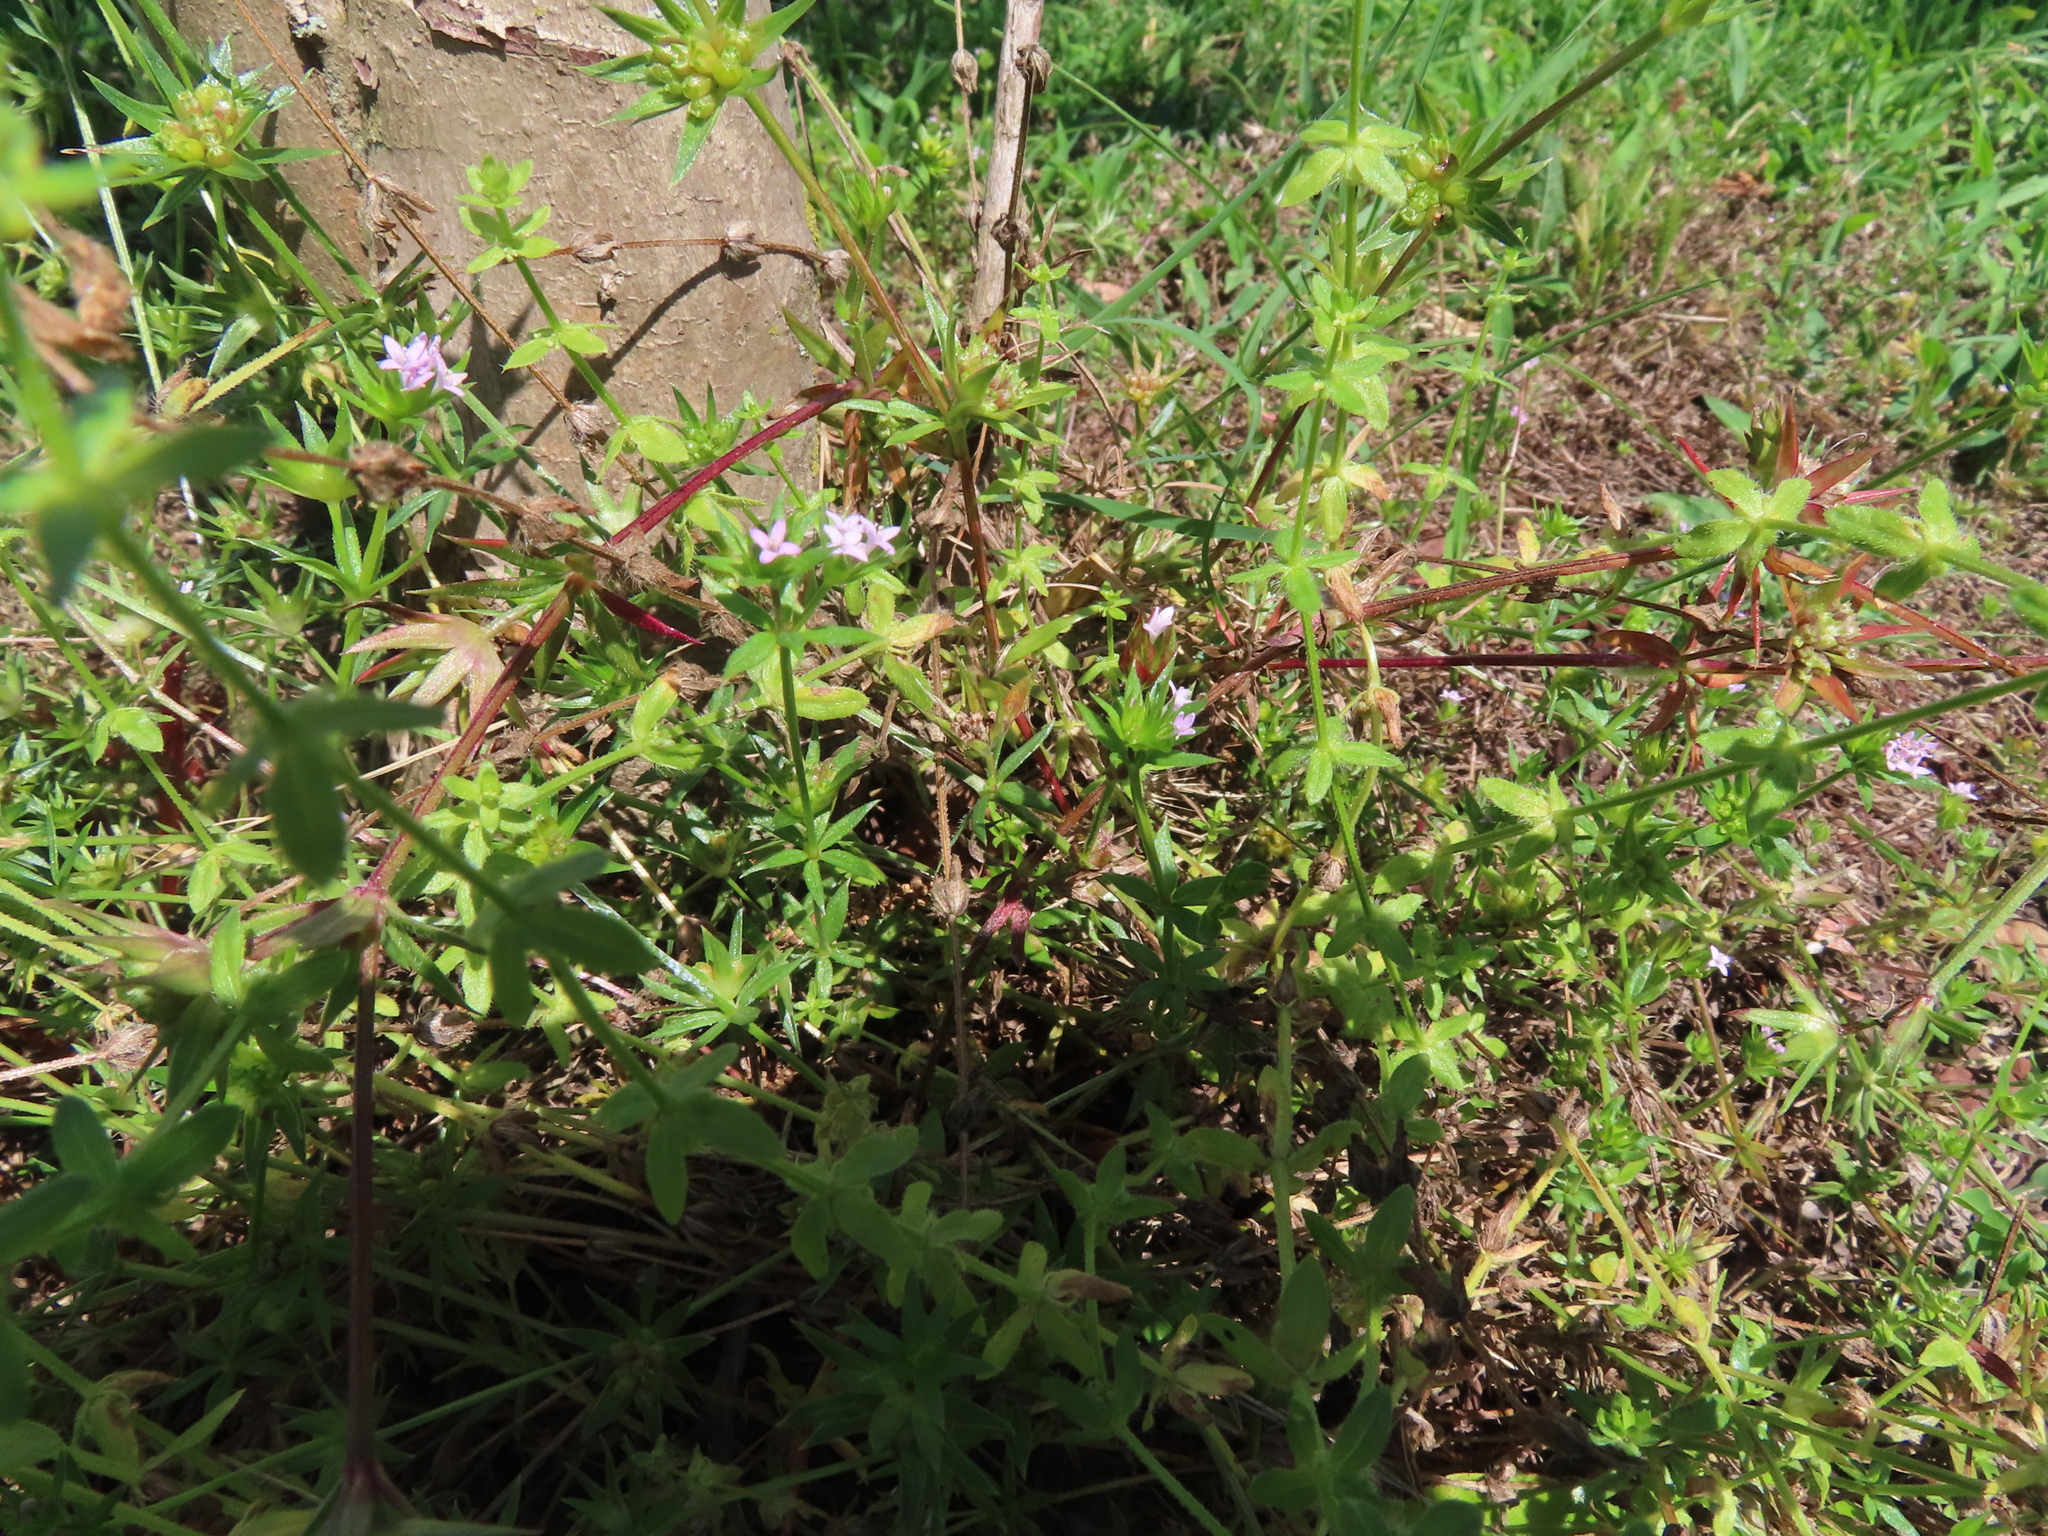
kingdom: Plantae
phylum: Tracheophyta
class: Magnoliopsida
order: Gentianales
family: Rubiaceae
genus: Sherardia
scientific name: Sherardia arvensis
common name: Field madder
